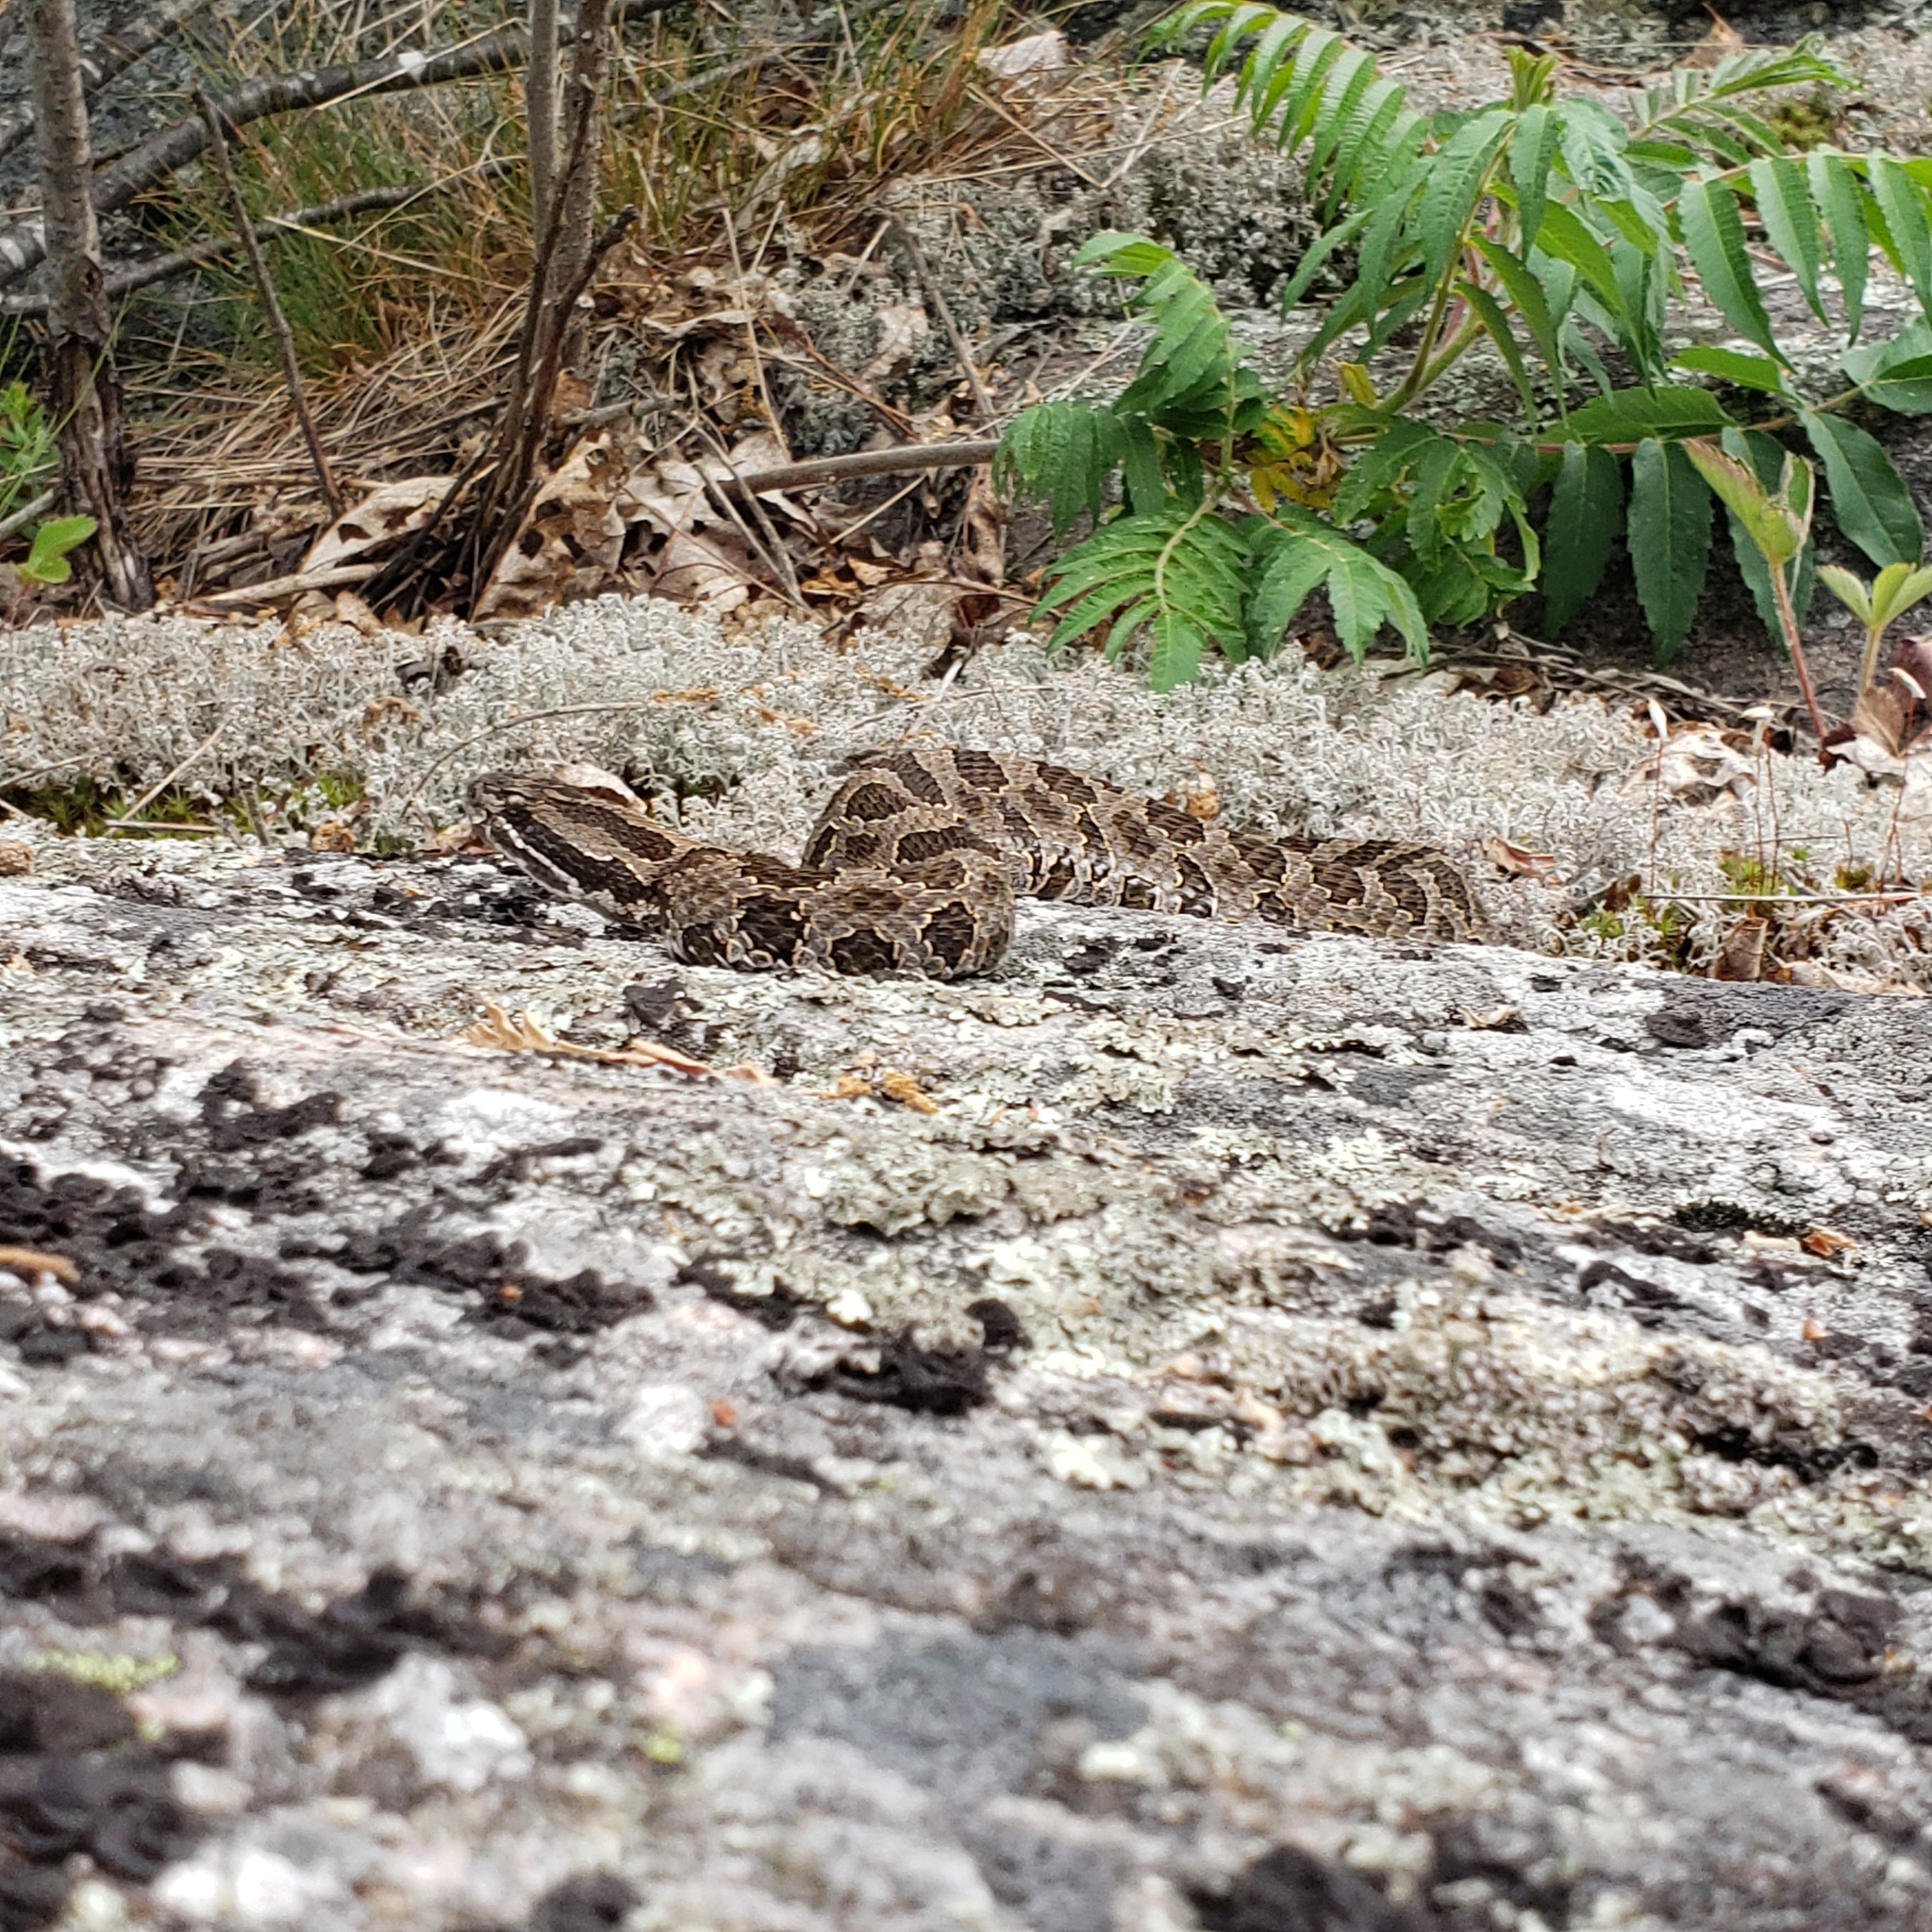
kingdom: Animalia
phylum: Chordata
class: Squamata
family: Viperidae
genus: Sistrurus
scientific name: Sistrurus catenatus
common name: Massasauga
